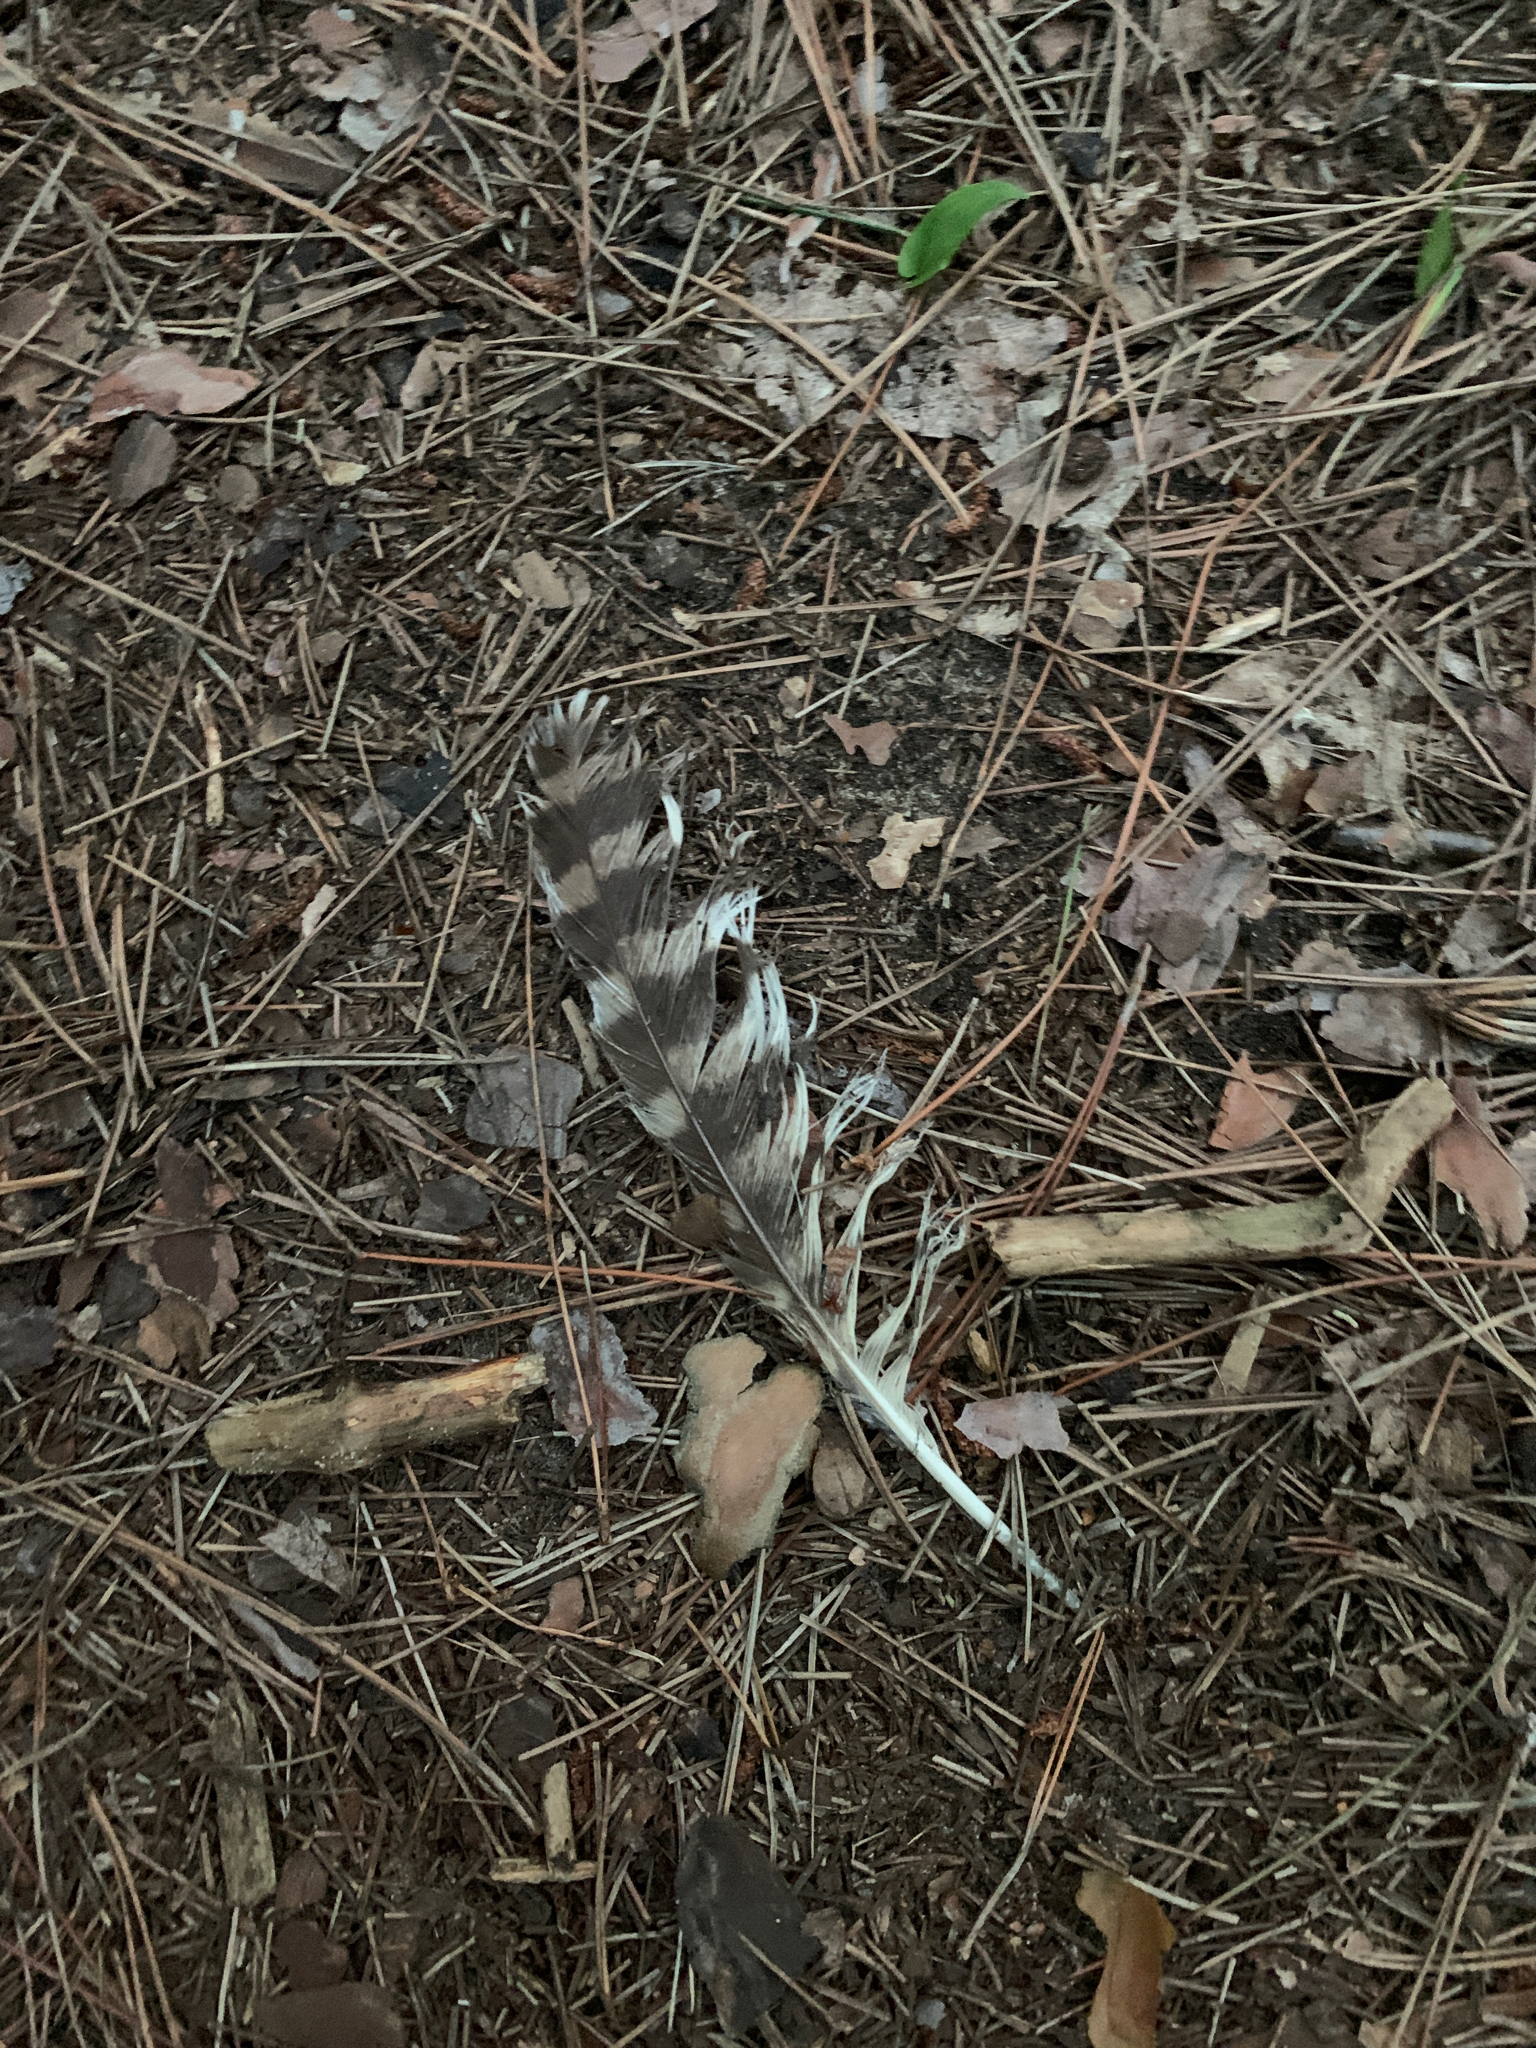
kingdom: Animalia
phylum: Chordata
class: Aves
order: Strigiformes
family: Strigidae
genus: Strix
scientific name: Strix varia
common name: Barred owl
